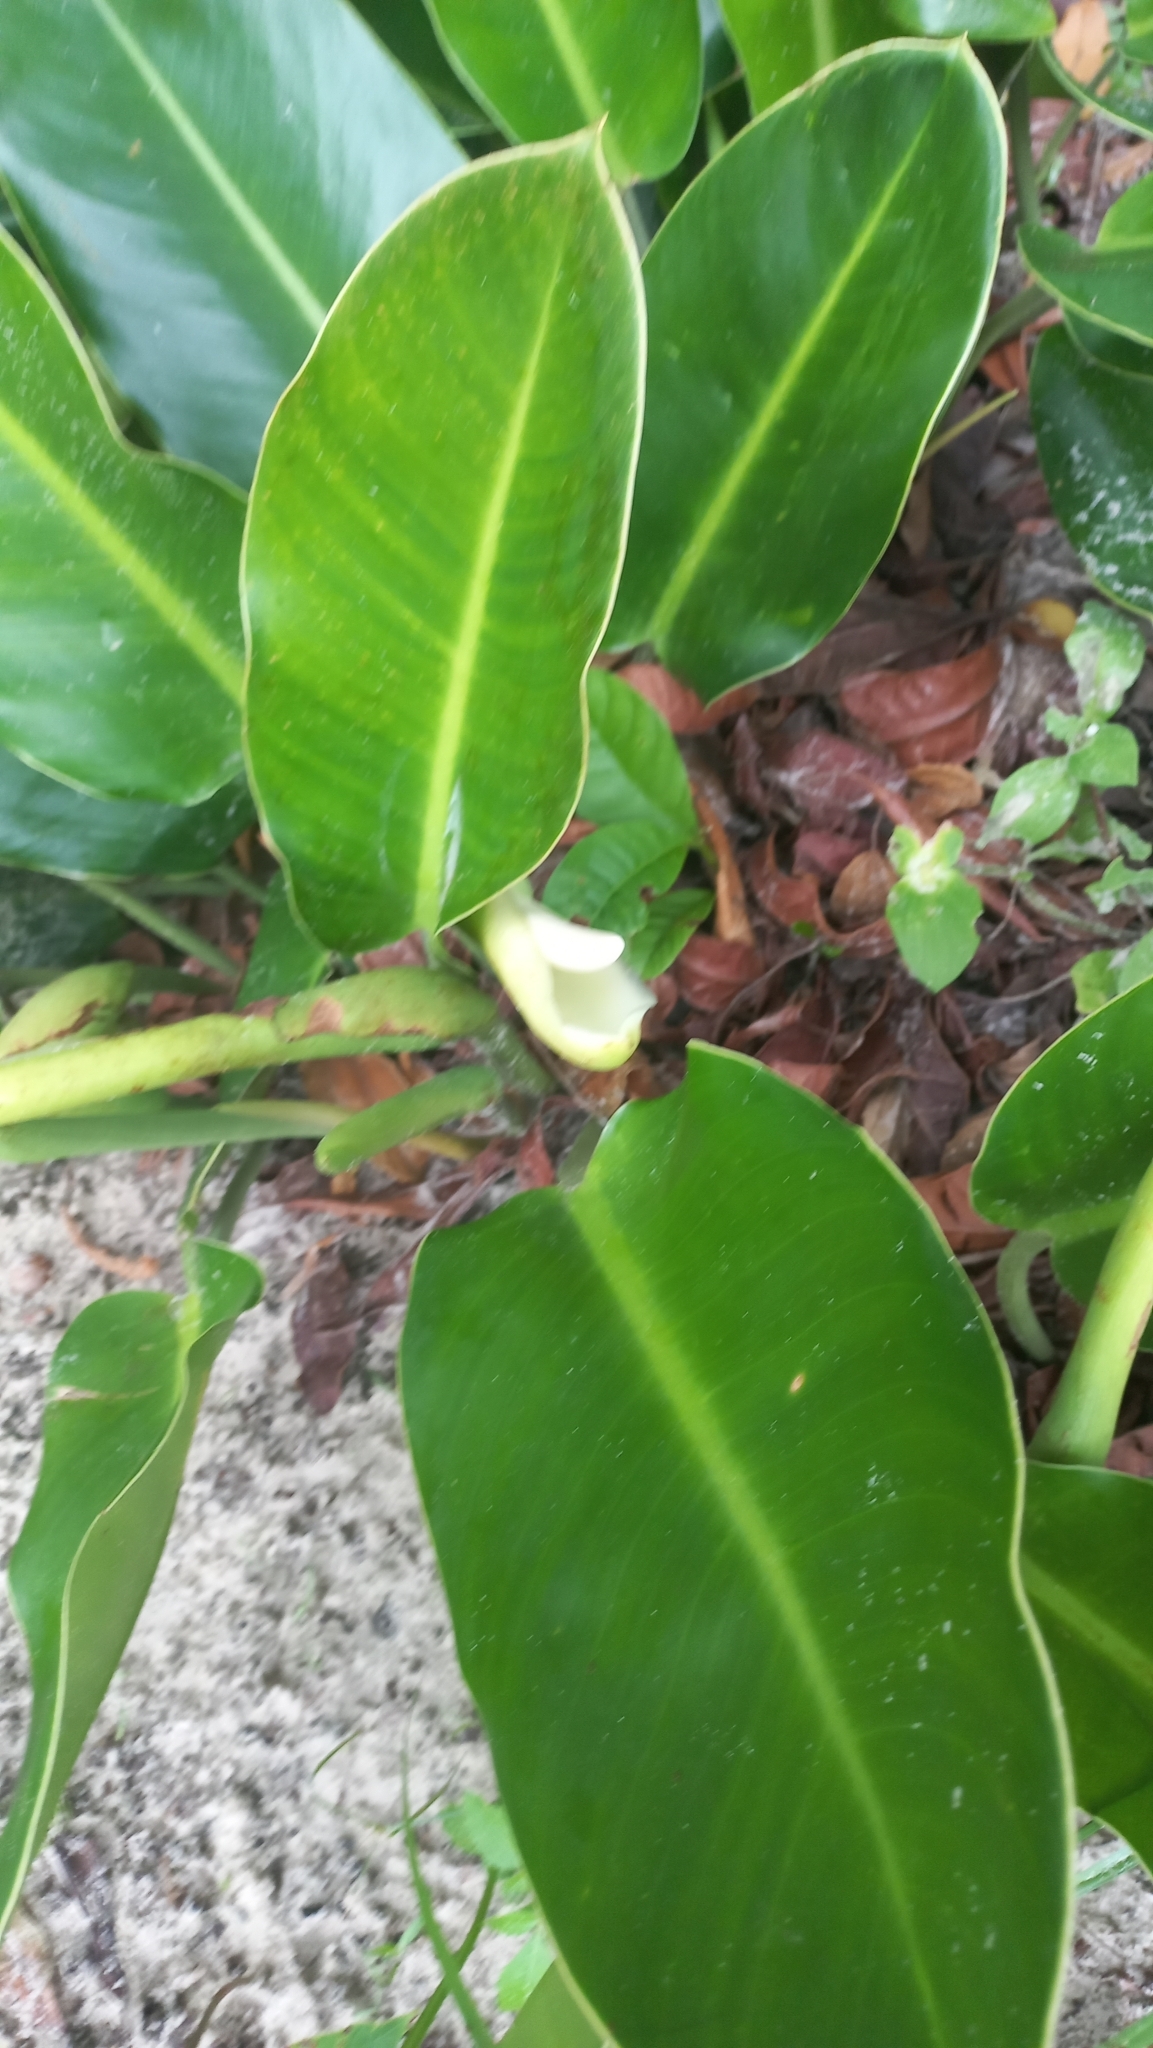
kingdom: Plantae
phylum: Tracheophyta
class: Liliopsida
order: Alismatales
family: Araceae
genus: Philodendron
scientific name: Philodendron renauxii
